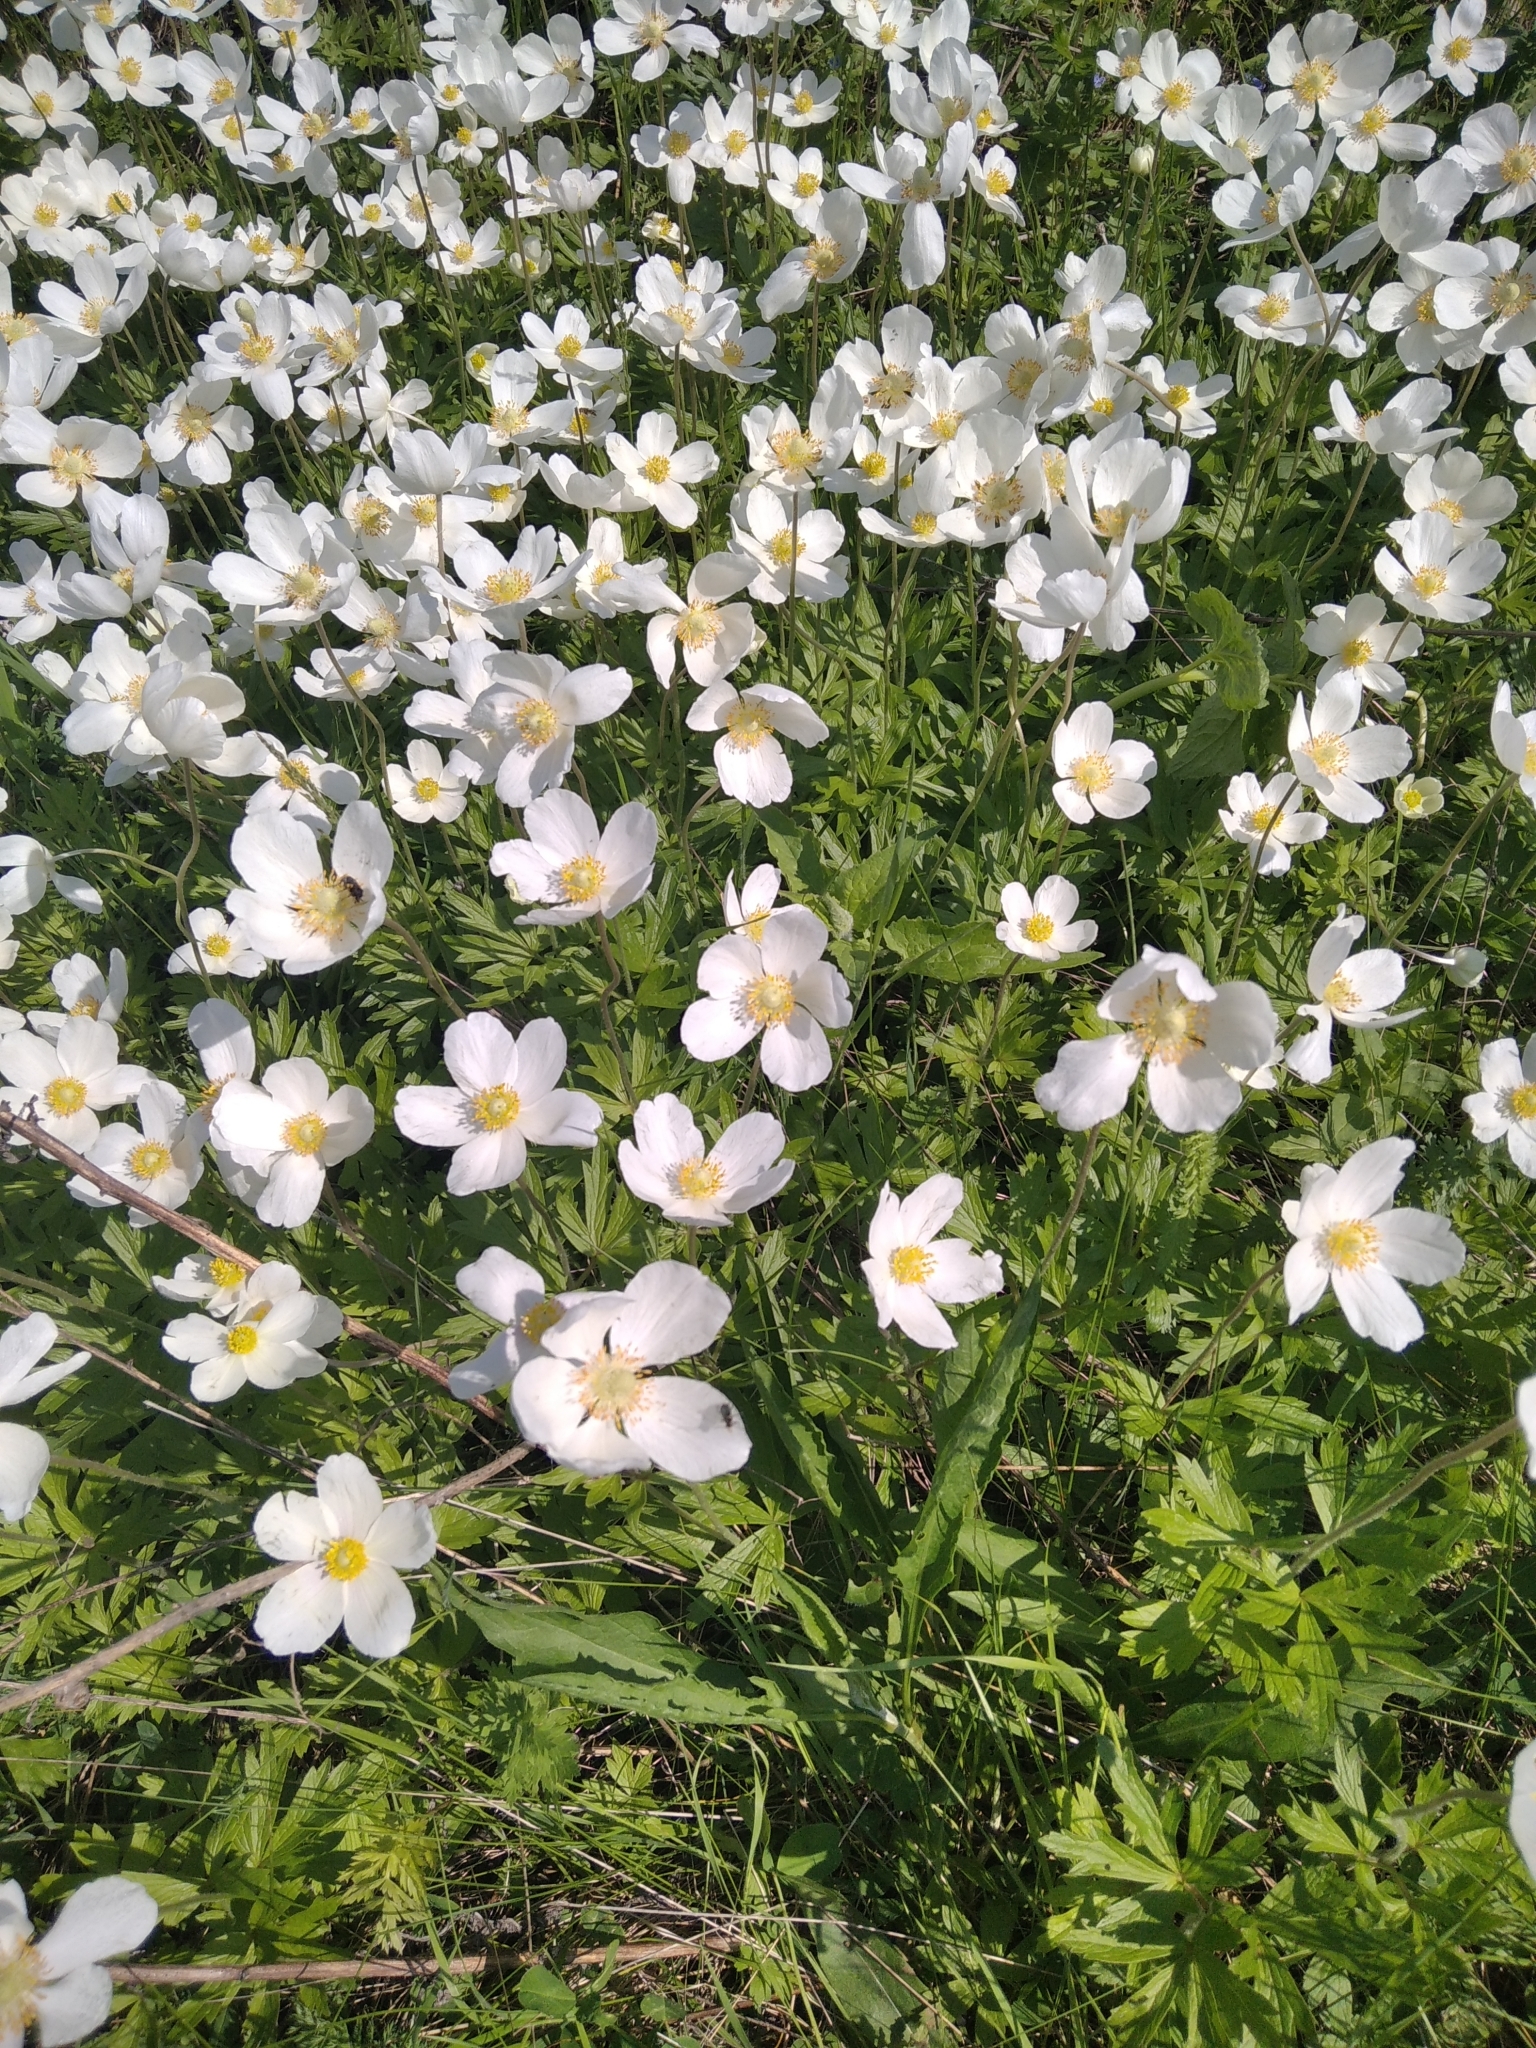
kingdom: Plantae
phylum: Tracheophyta
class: Magnoliopsida
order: Ranunculales
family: Ranunculaceae
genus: Anemone
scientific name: Anemone sylvestris
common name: Snowdrop anemone
